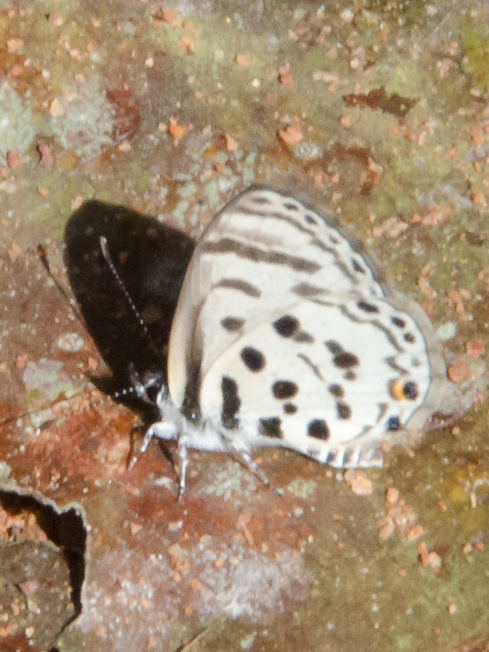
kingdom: Animalia
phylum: Arthropoda
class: Insecta
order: Lepidoptera
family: Lycaenidae
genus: Azanus
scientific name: Azanus mirza
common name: Mirza babul blue
